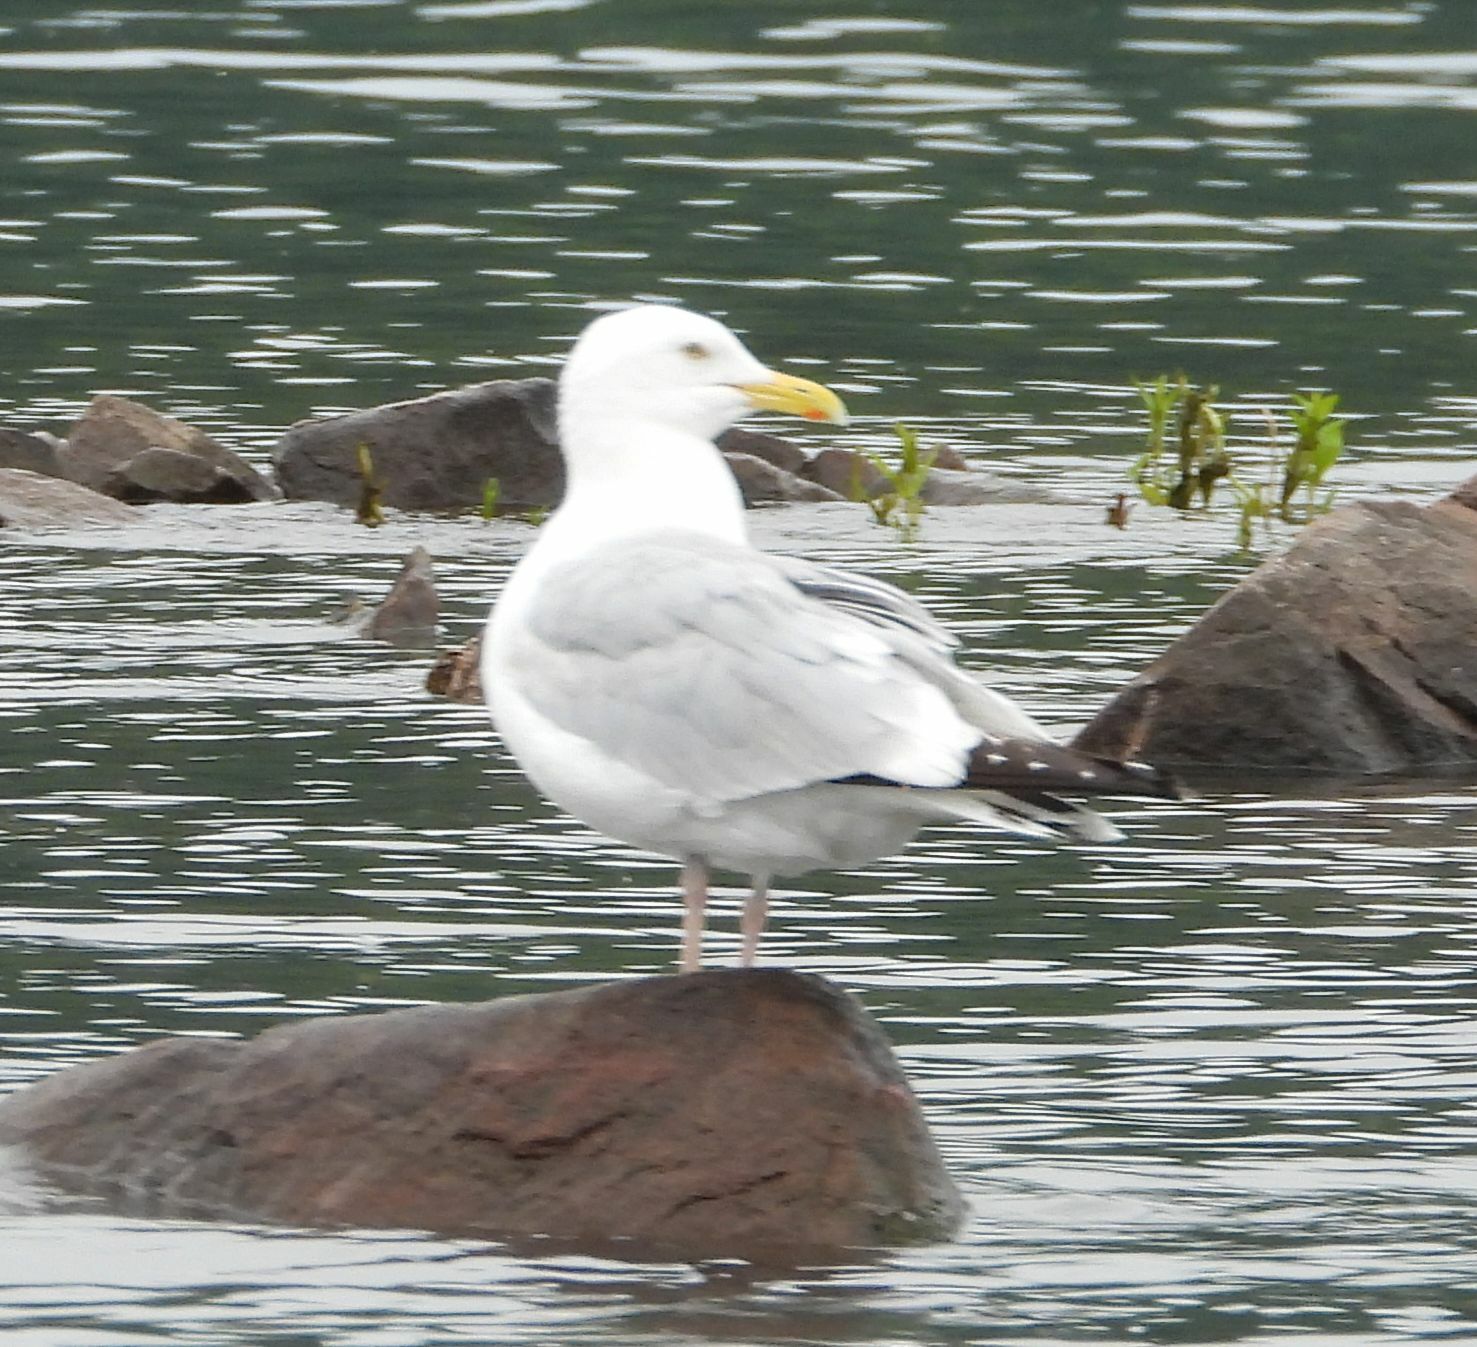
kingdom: Animalia
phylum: Chordata
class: Aves
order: Charadriiformes
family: Laridae
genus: Larus
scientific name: Larus argentatus
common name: Herring gull
